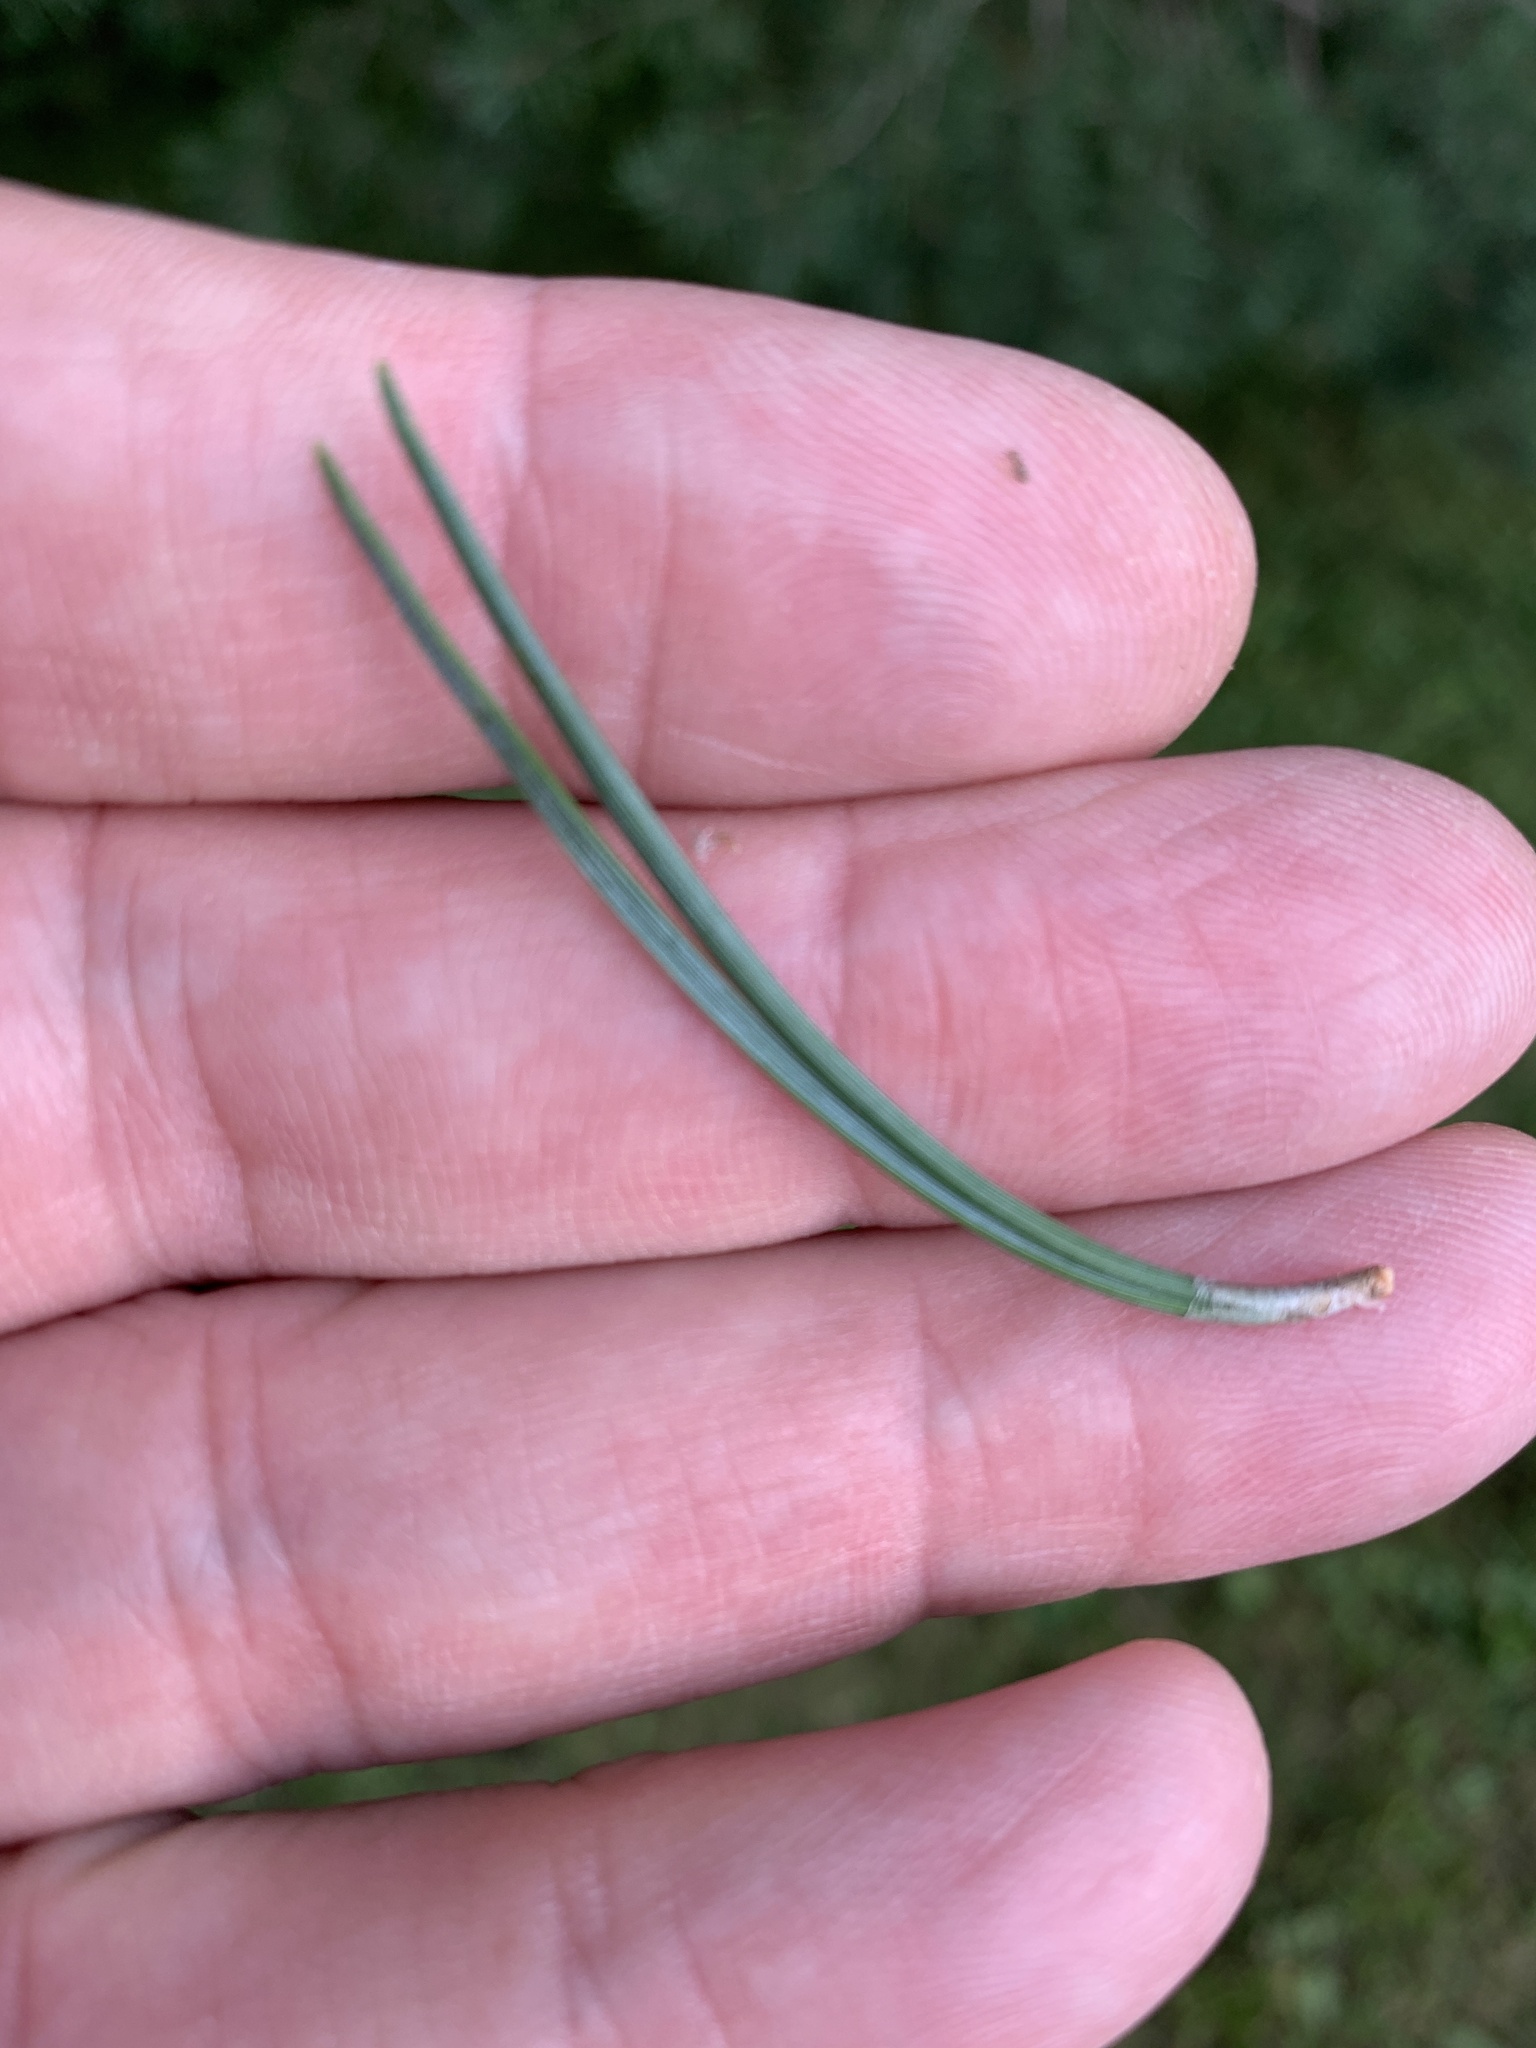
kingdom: Plantae
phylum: Tracheophyta
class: Pinopsida
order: Pinales
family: Pinaceae
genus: Pinus
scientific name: Pinus sylvestris
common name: Scots pine
